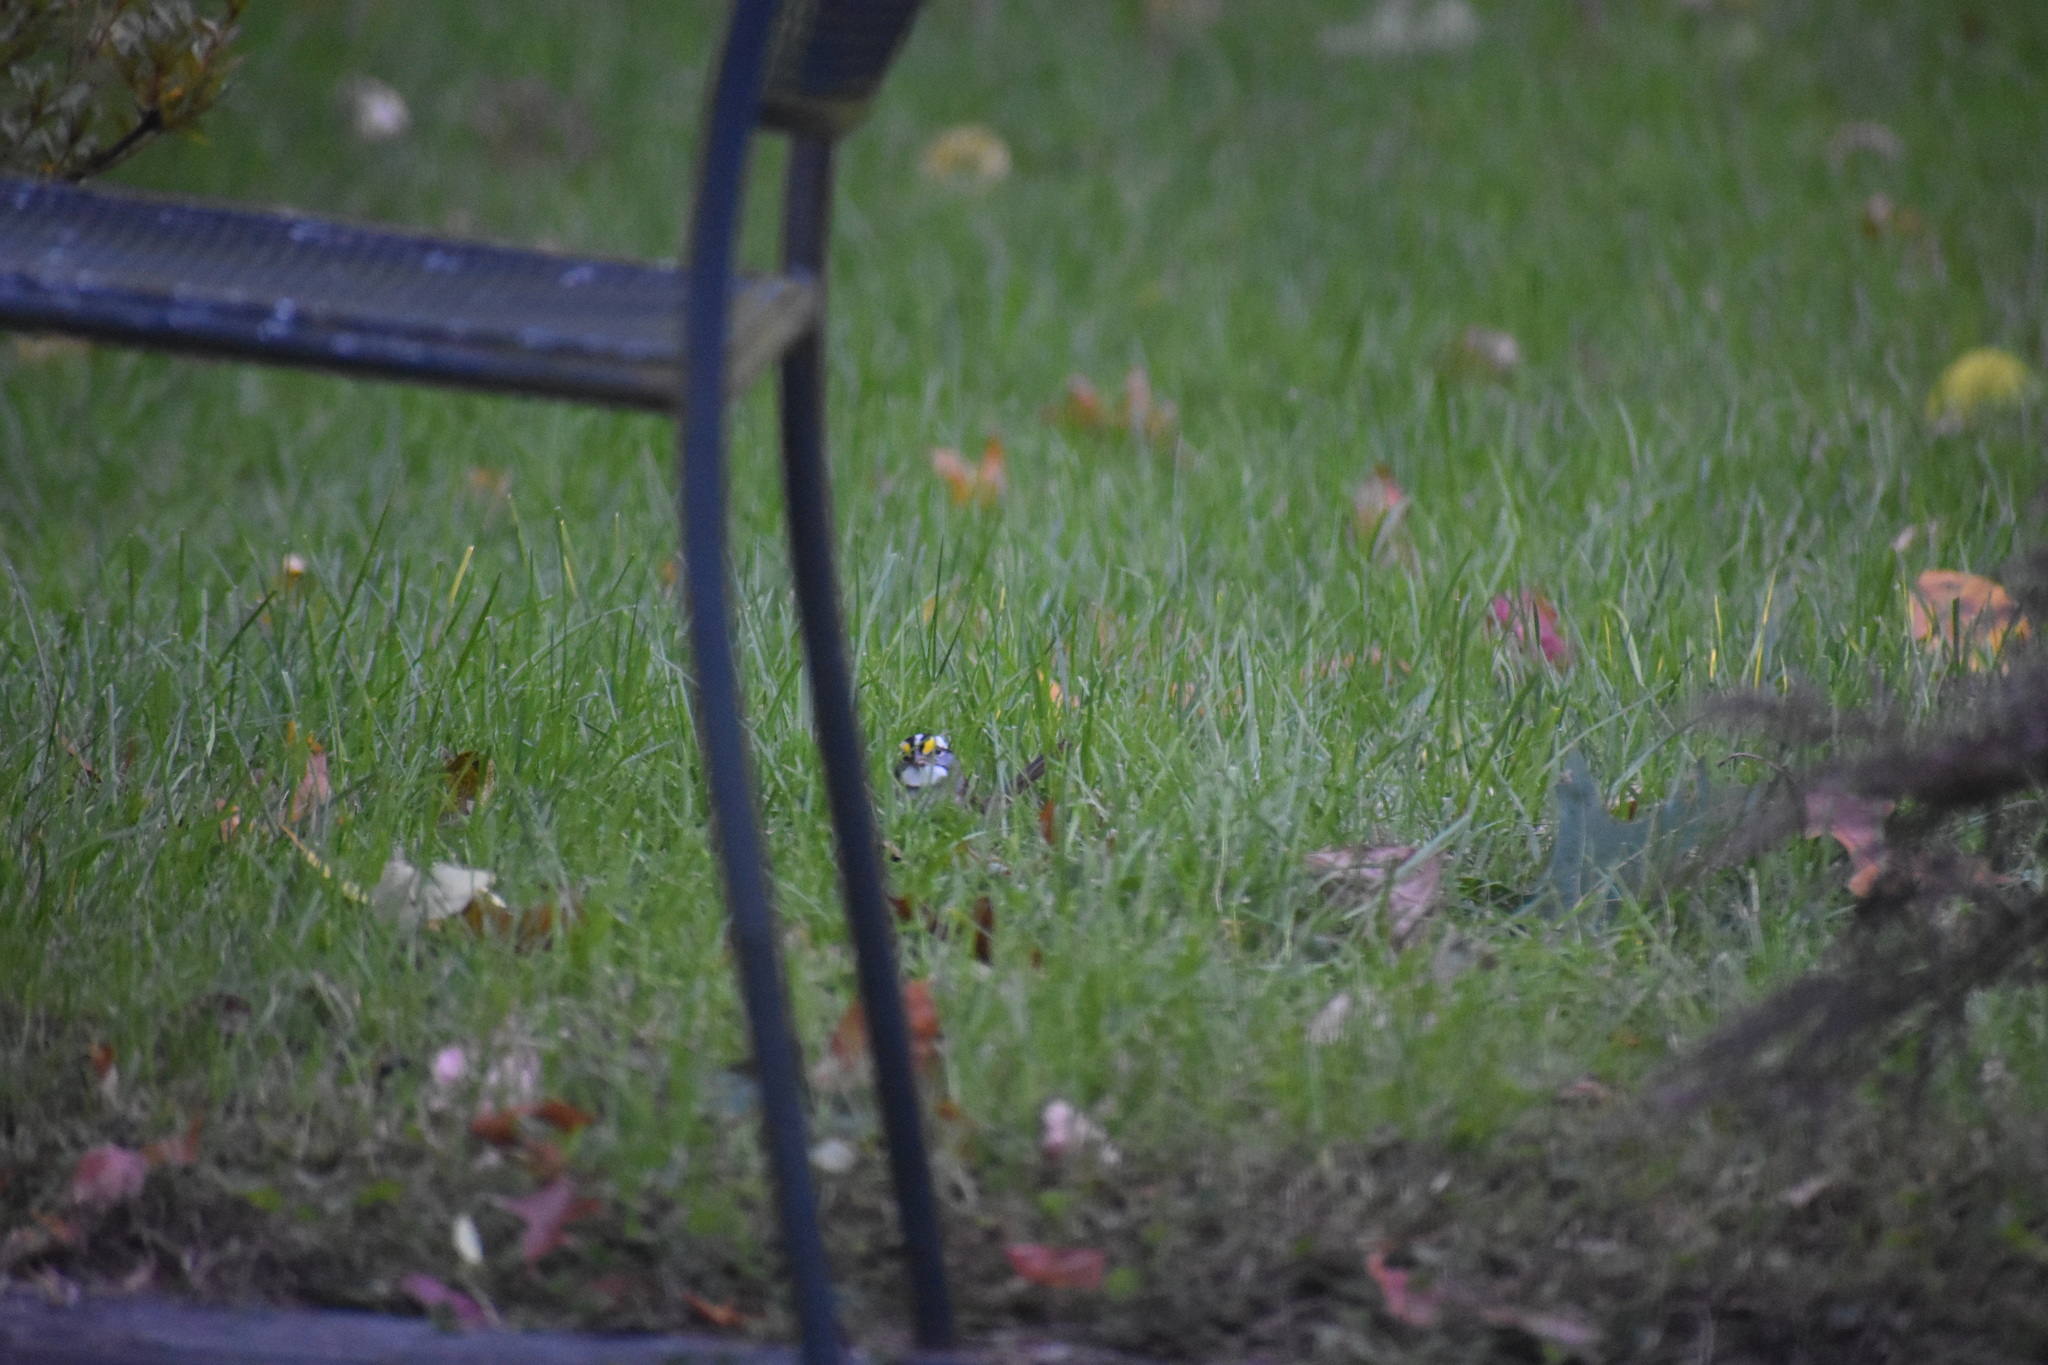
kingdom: Animalia
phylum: Chordata
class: Aves
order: Passeriformes
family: Passerellidae
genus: Zonotrichia
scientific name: Zonotrichia albicollis
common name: White-throated sparrow
